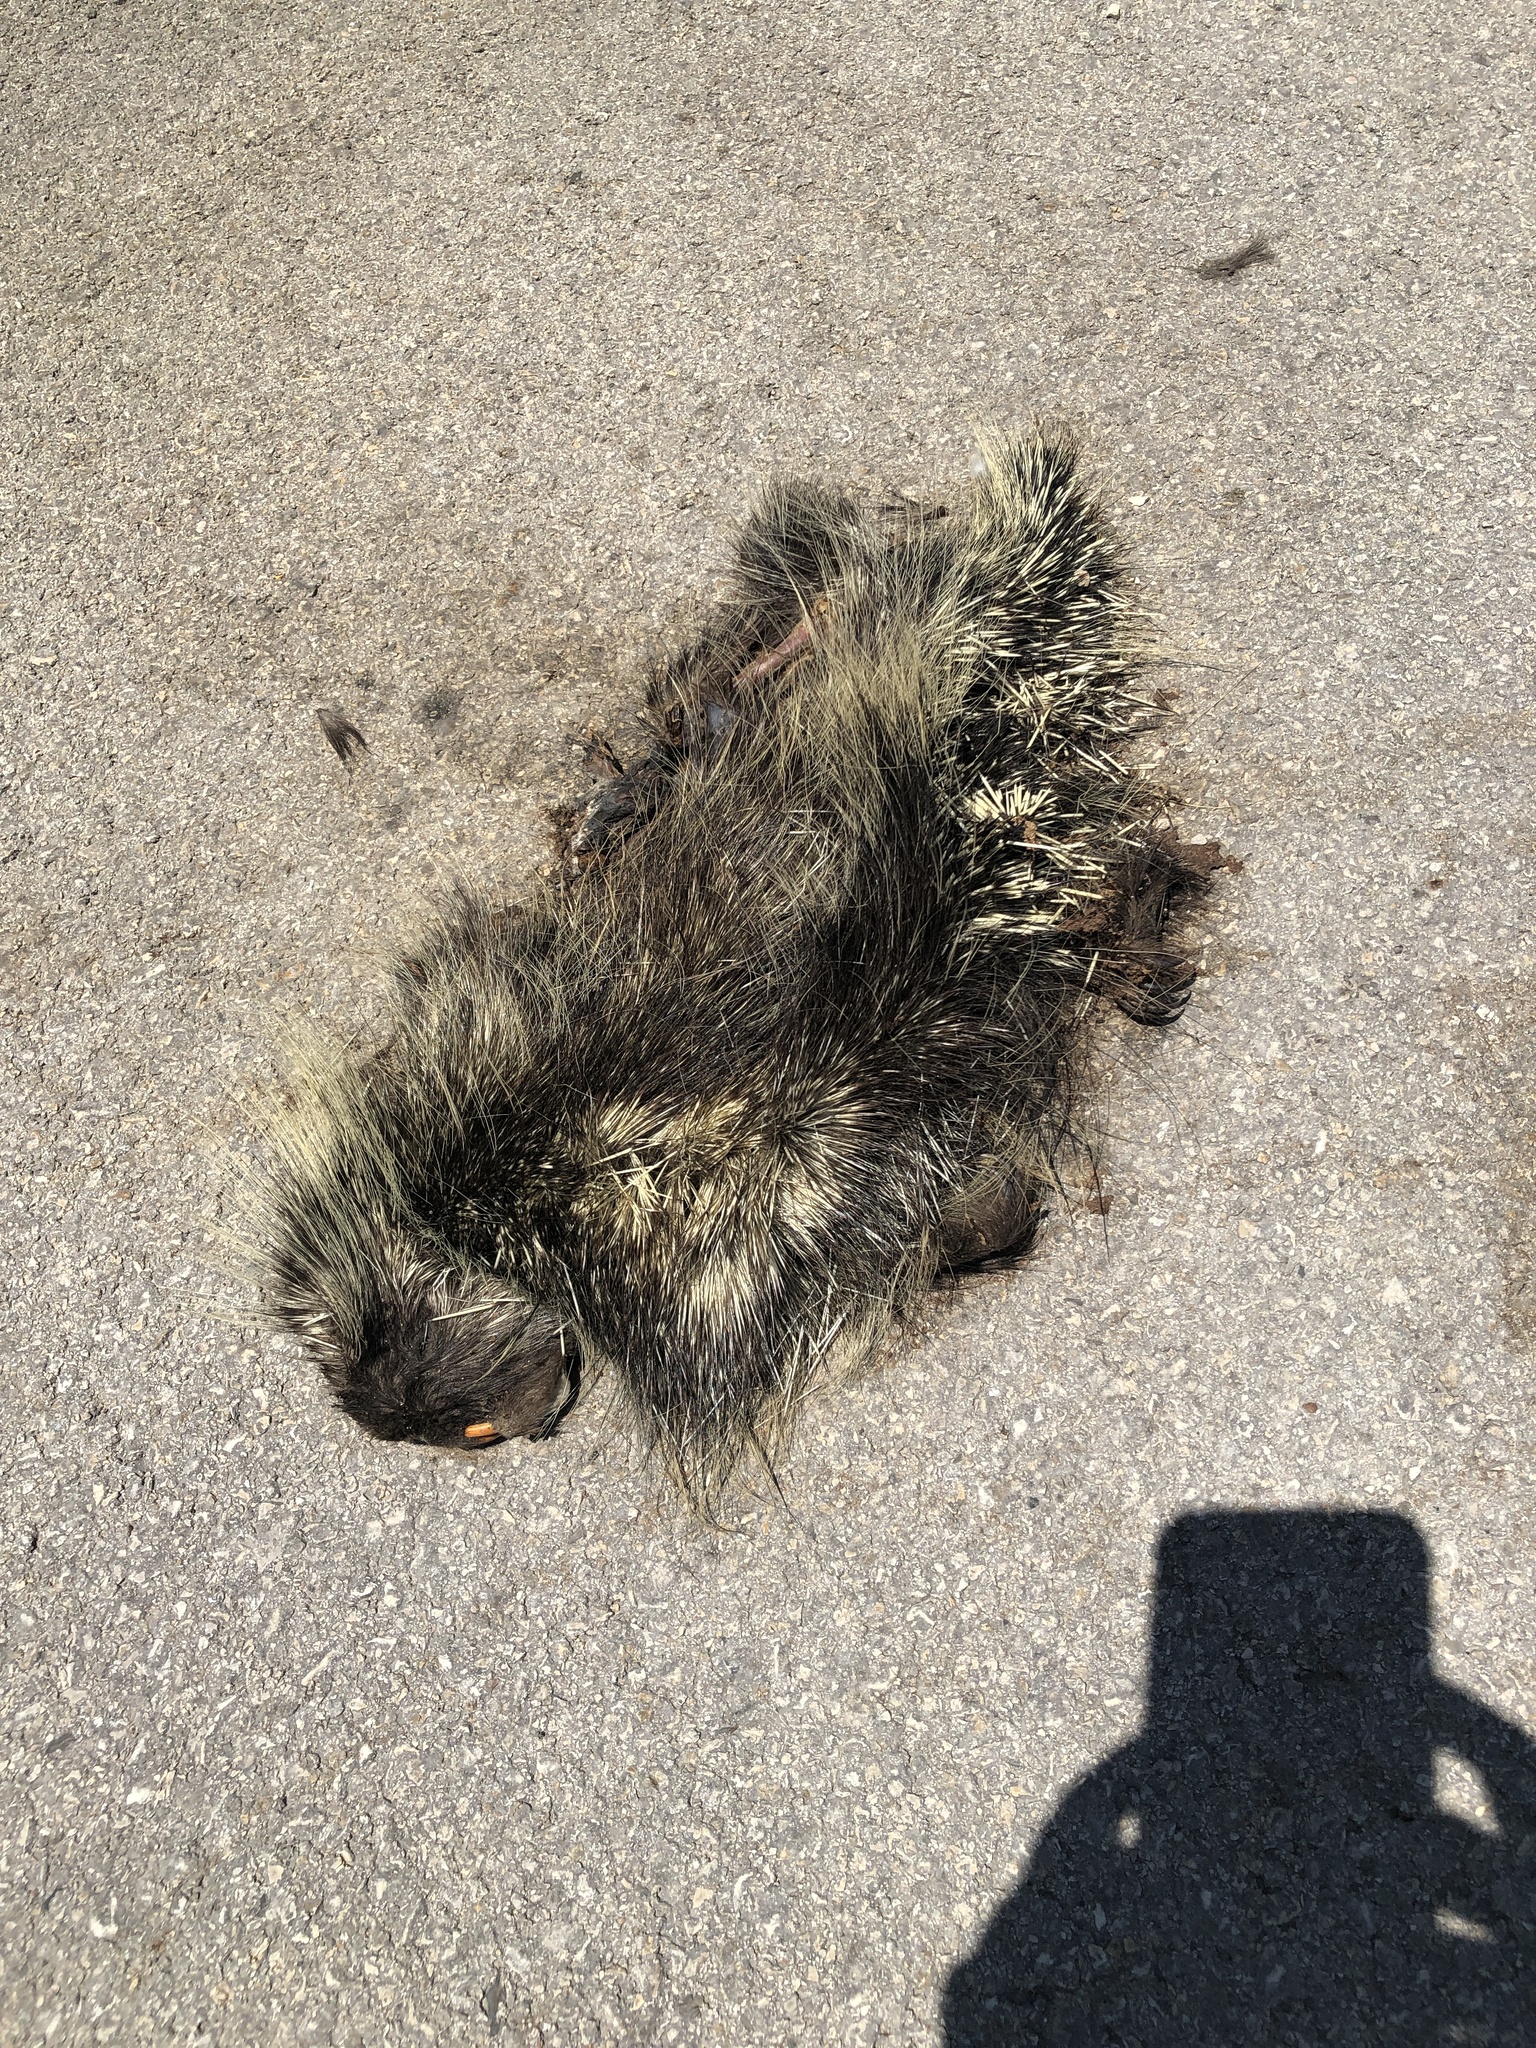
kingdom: Animalia
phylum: Chordata
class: Mammalia
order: Rodentia
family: Erethizontidae
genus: Erethizon
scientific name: Erethizon dorsatus
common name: North american porcupine
